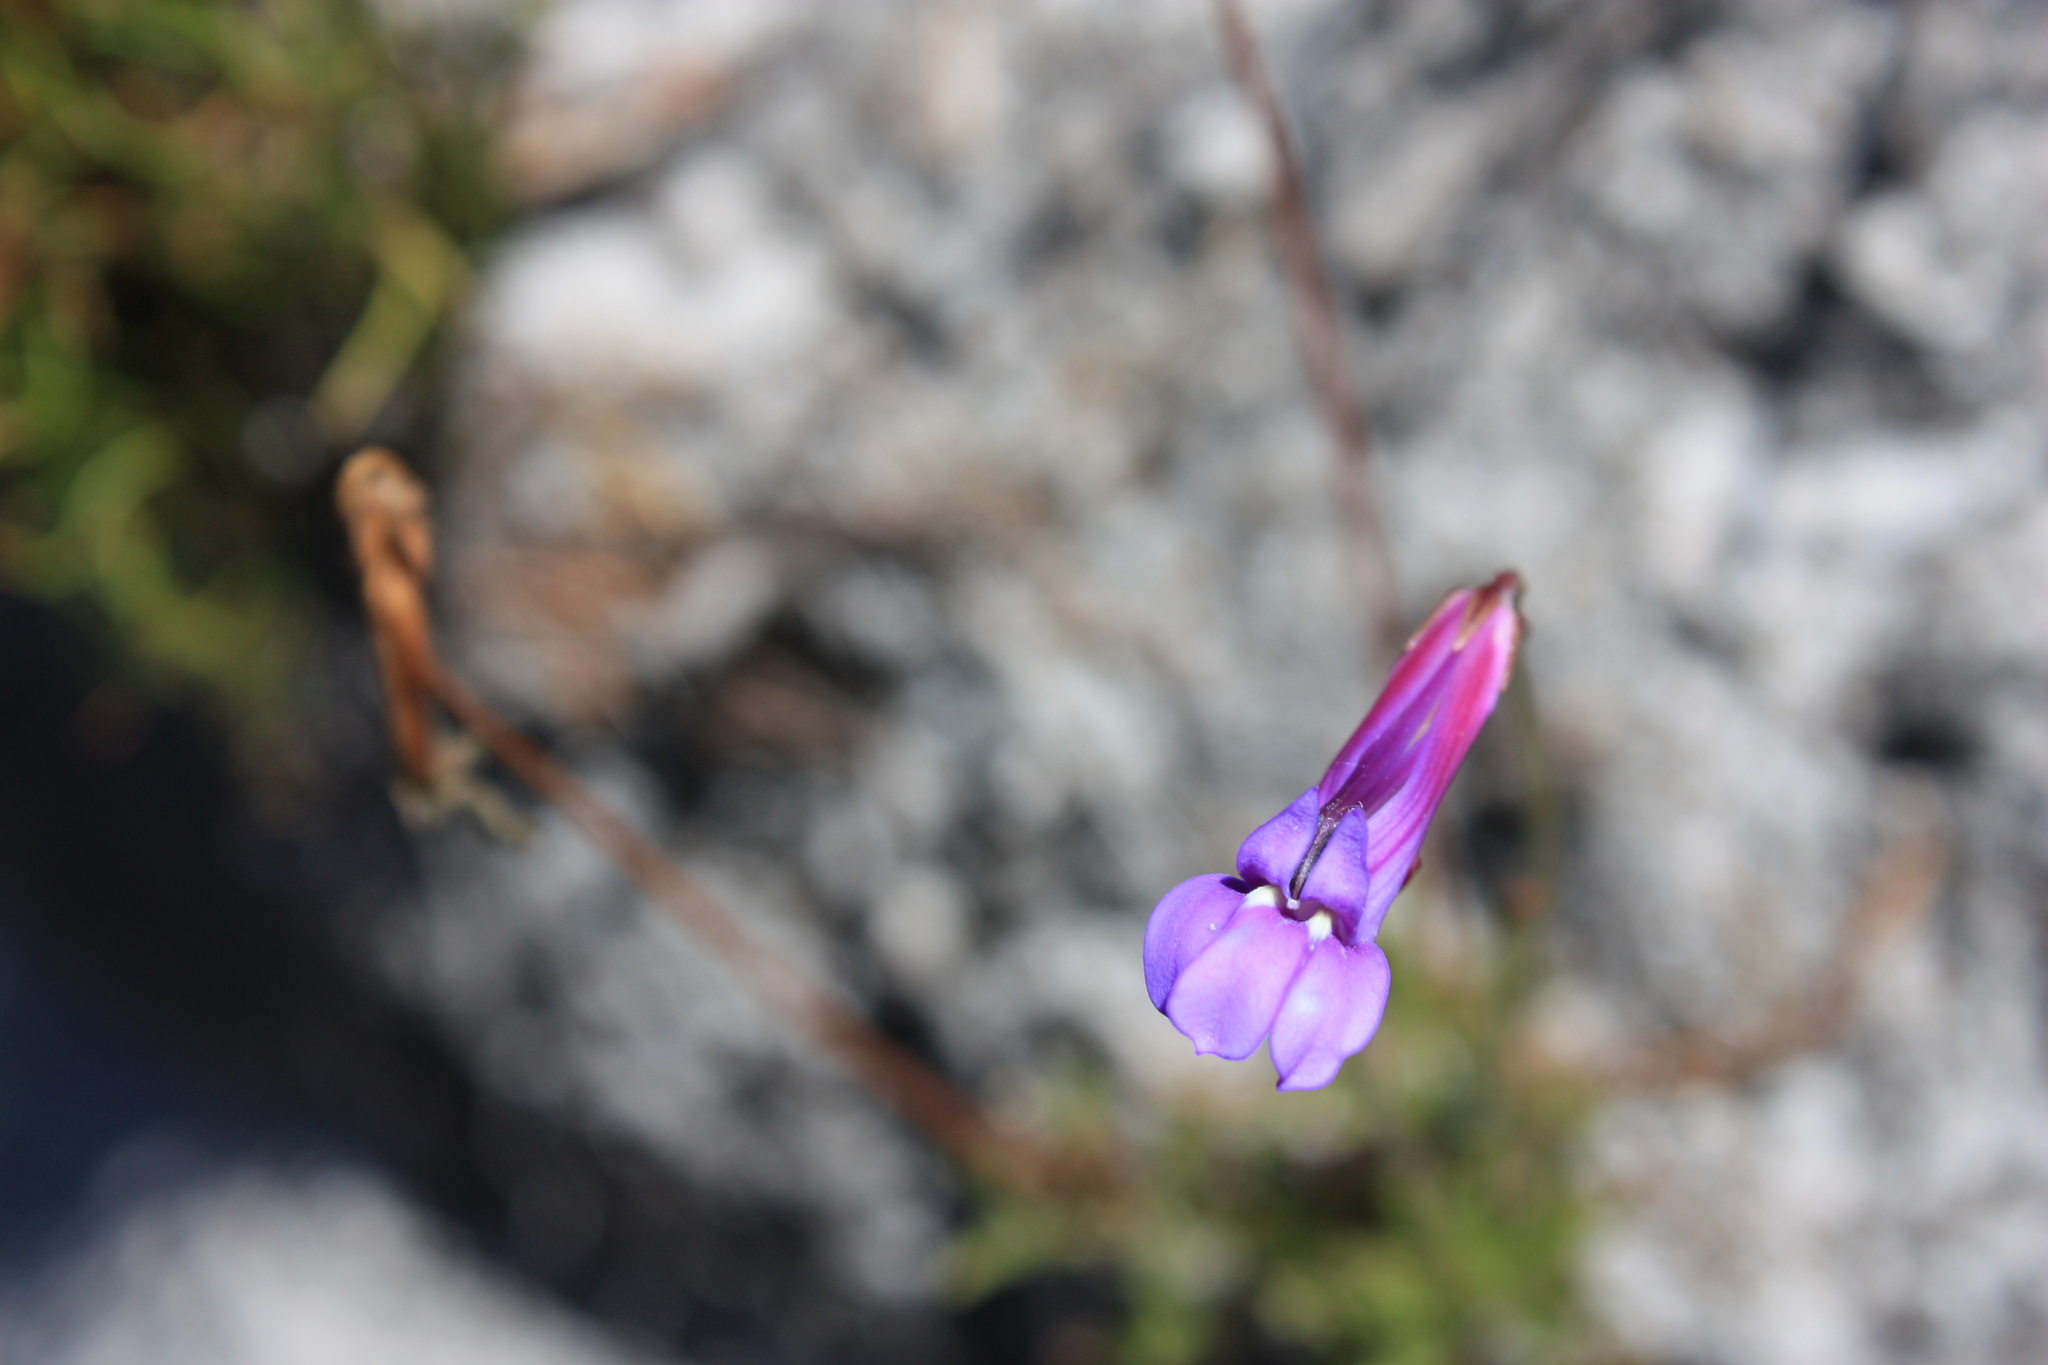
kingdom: Plantae
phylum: Tracheophyta
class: Magnoliopsida
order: Asterales
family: Campanulaceae
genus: Lobelia
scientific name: Lobelia coronopifolia
